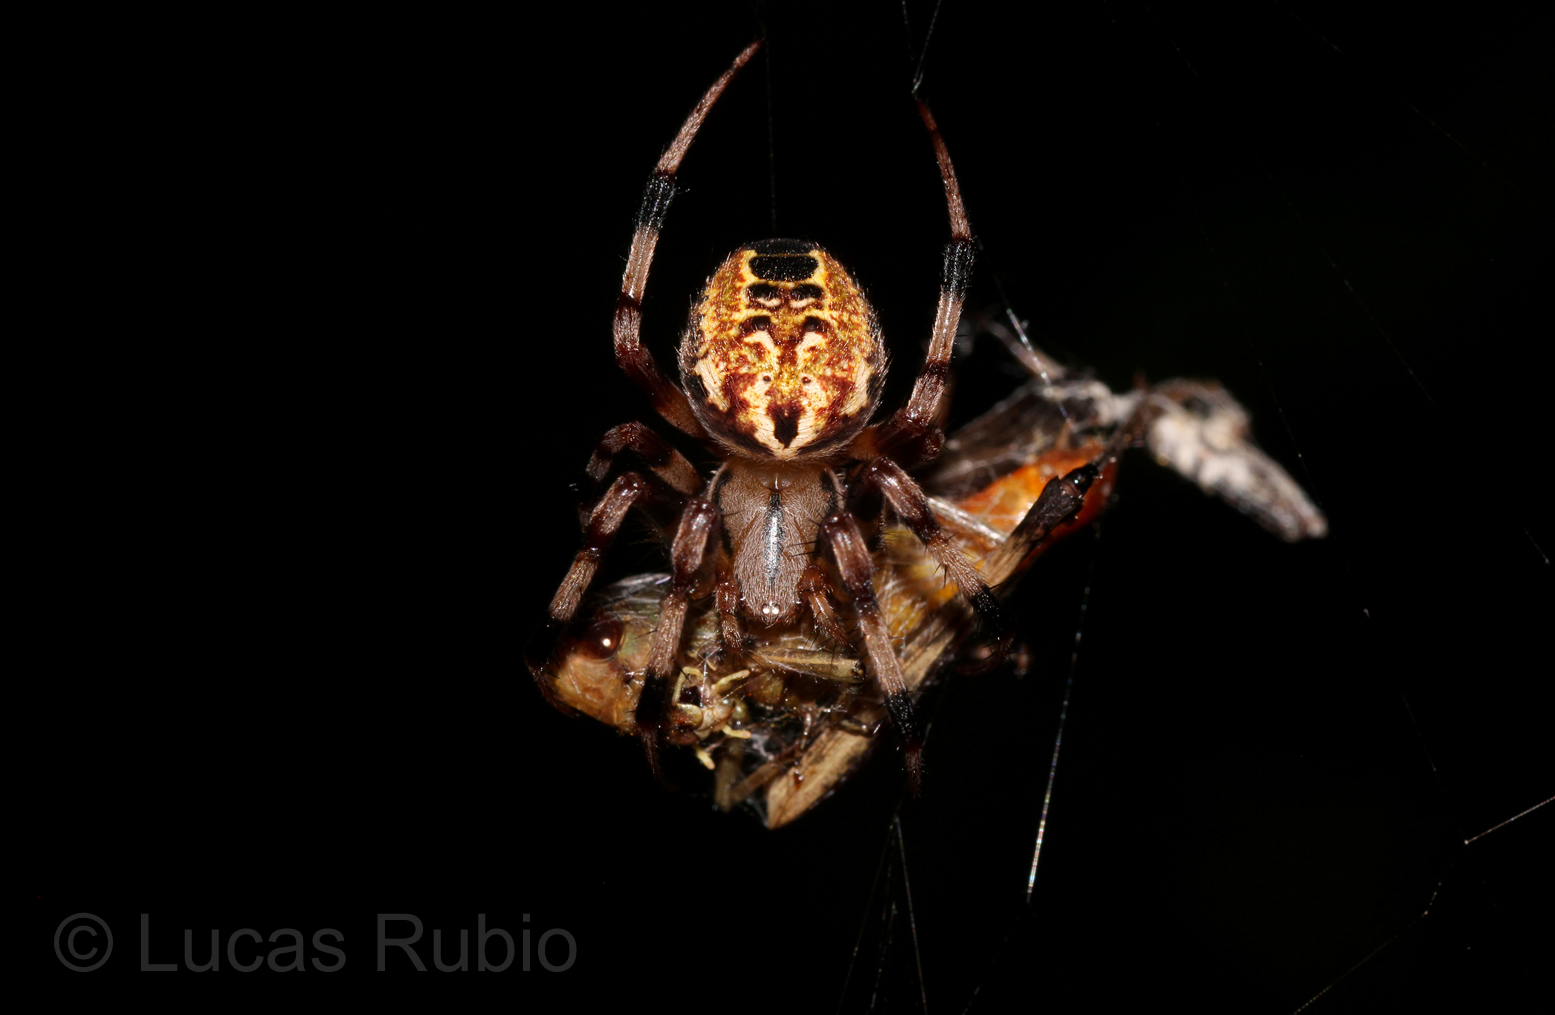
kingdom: Animalia
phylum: Arthropoda
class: Arachnida
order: Araneae
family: Araneidae
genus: Araneus
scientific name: Araneus venatrix
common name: Orb weavers
